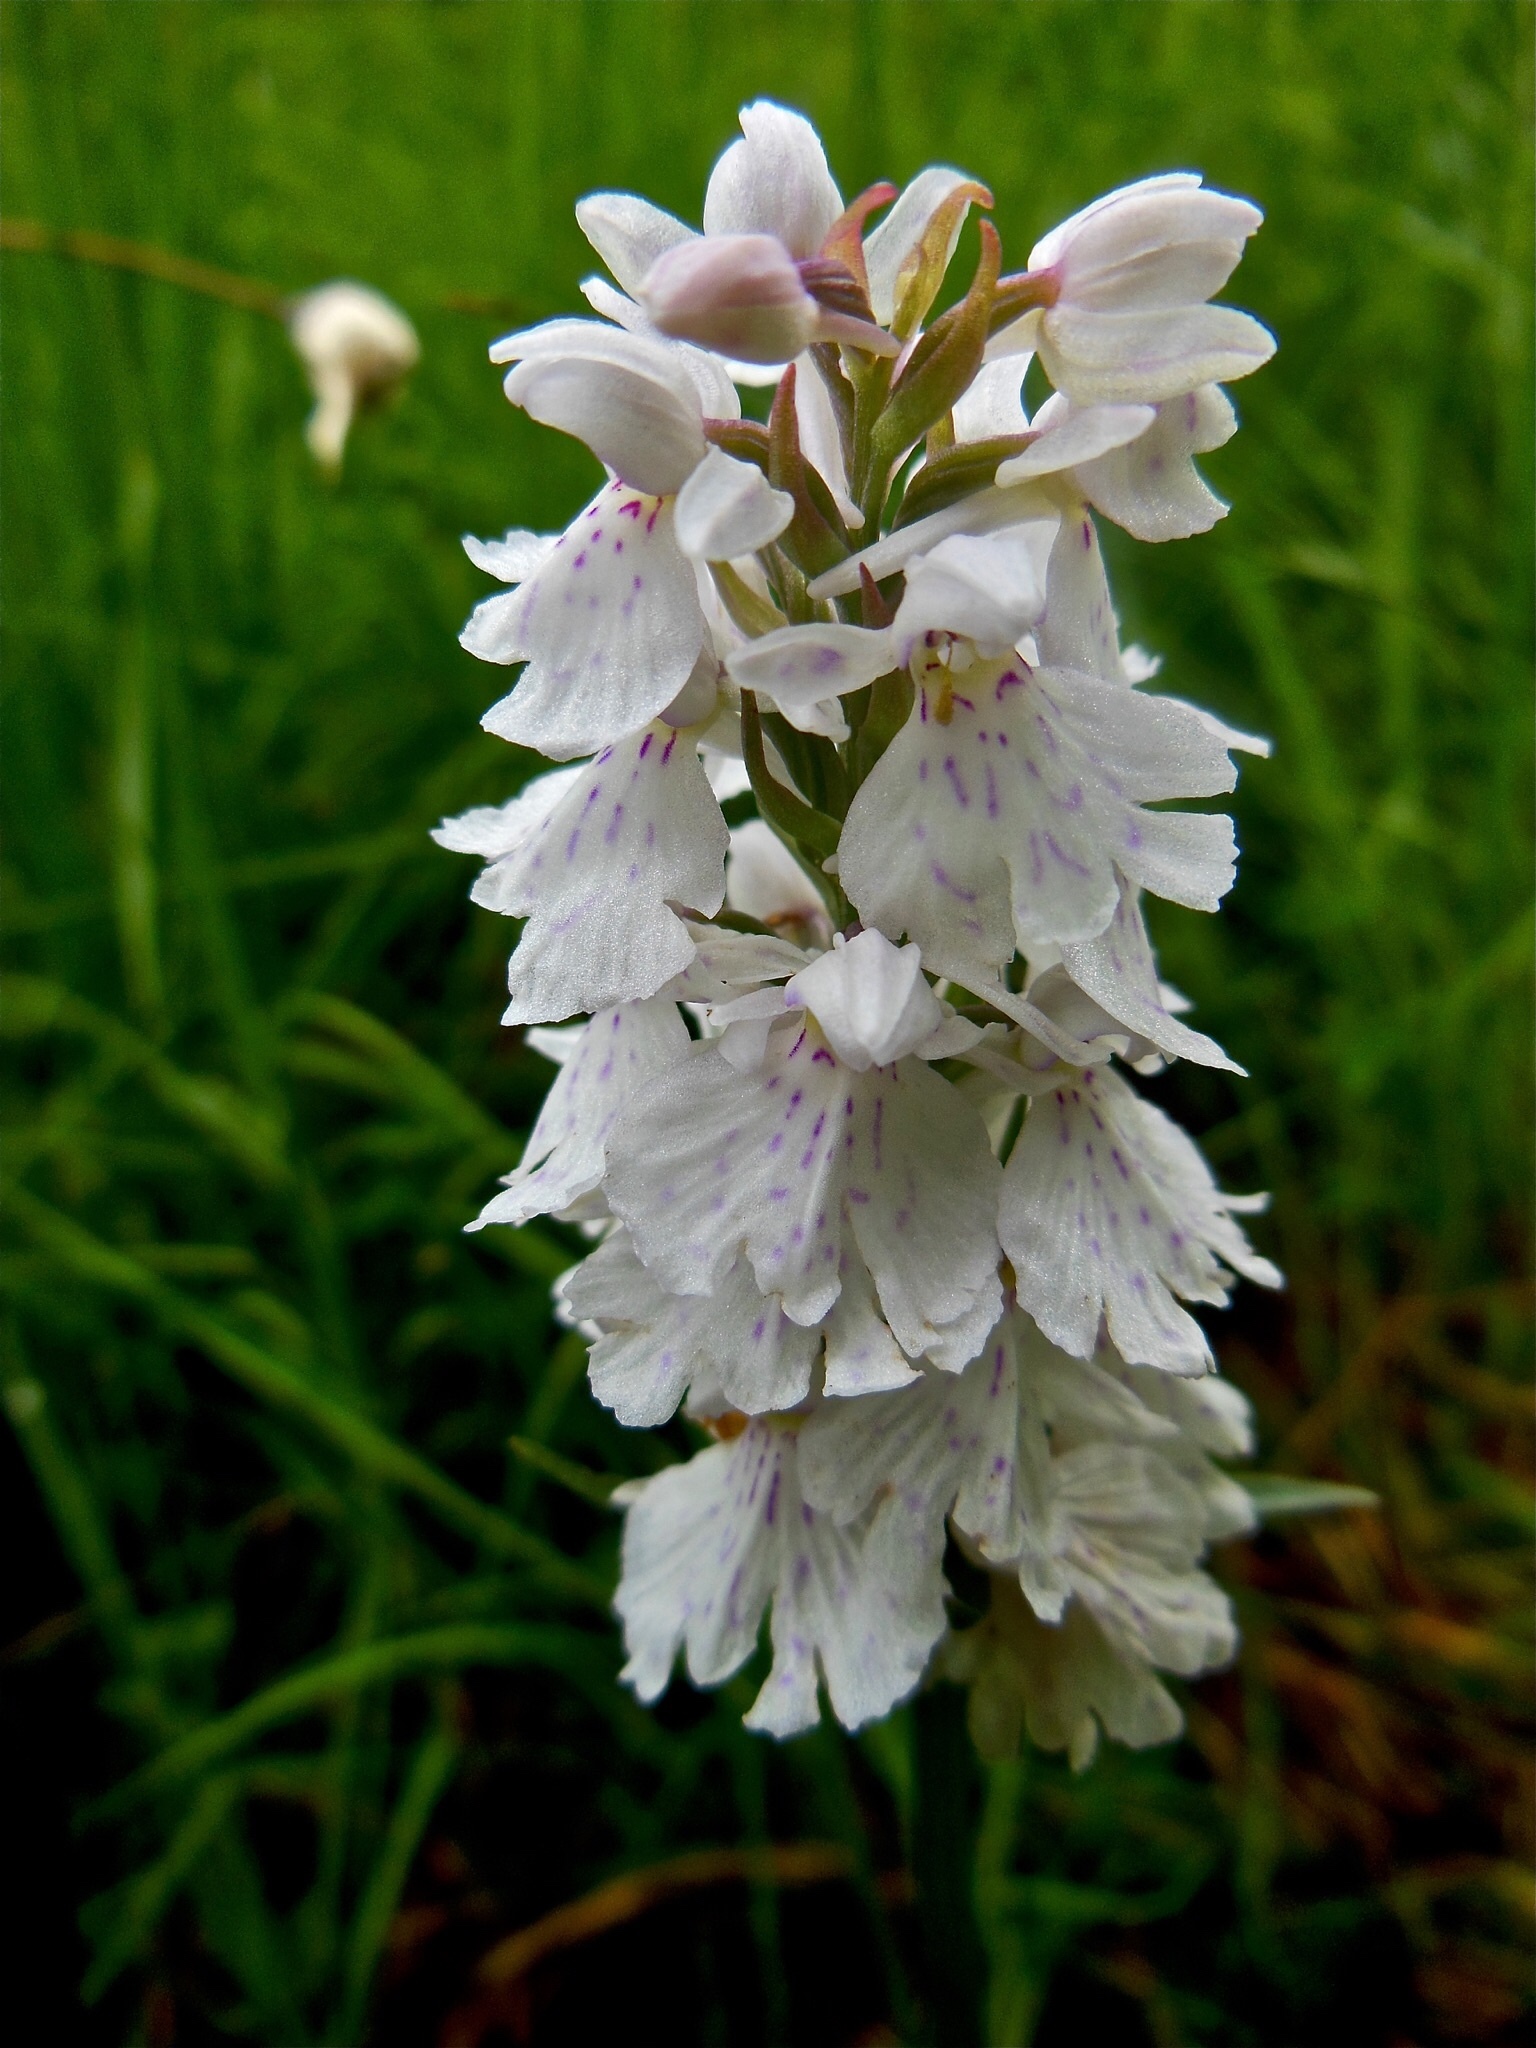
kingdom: Plantae
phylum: Tracheophyta
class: Liliopsida
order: Asparagales
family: Orchidaceae
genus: Dactylorhiza
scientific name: Dactylorhiza maculata
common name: Heath spotted-orchid
